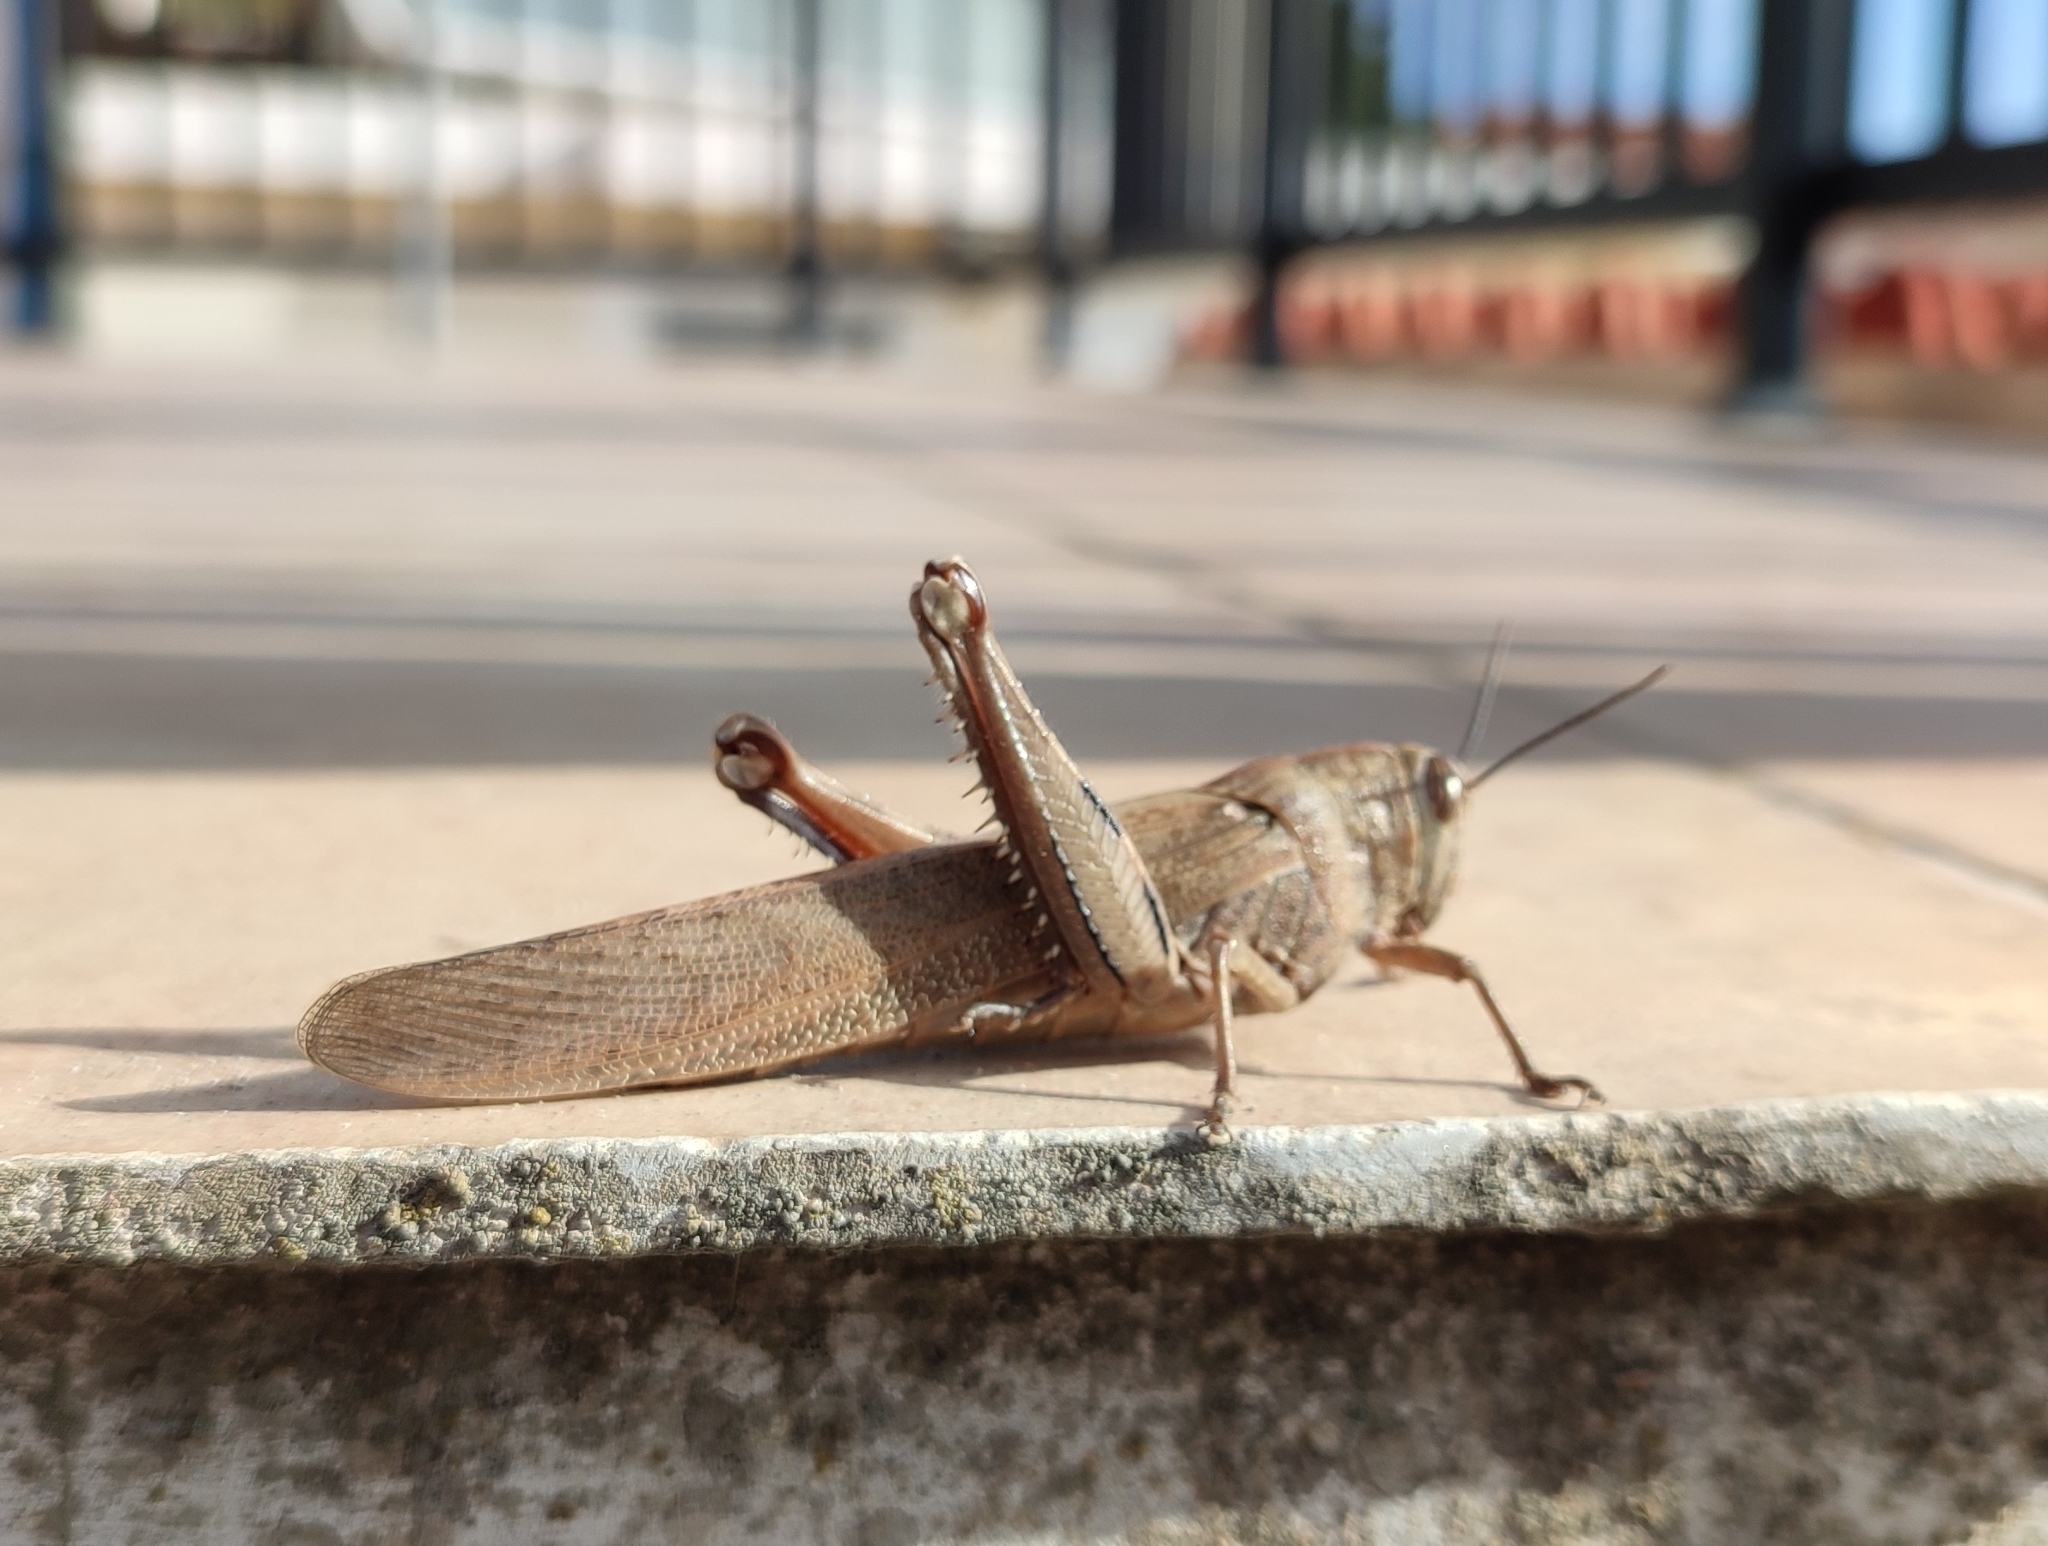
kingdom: Animalia
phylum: Arthropoda
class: Insecta
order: Orthoptera
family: Acrididae
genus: Anacridium
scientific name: Anacridium aegyptium
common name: Egyptian grasshopper
